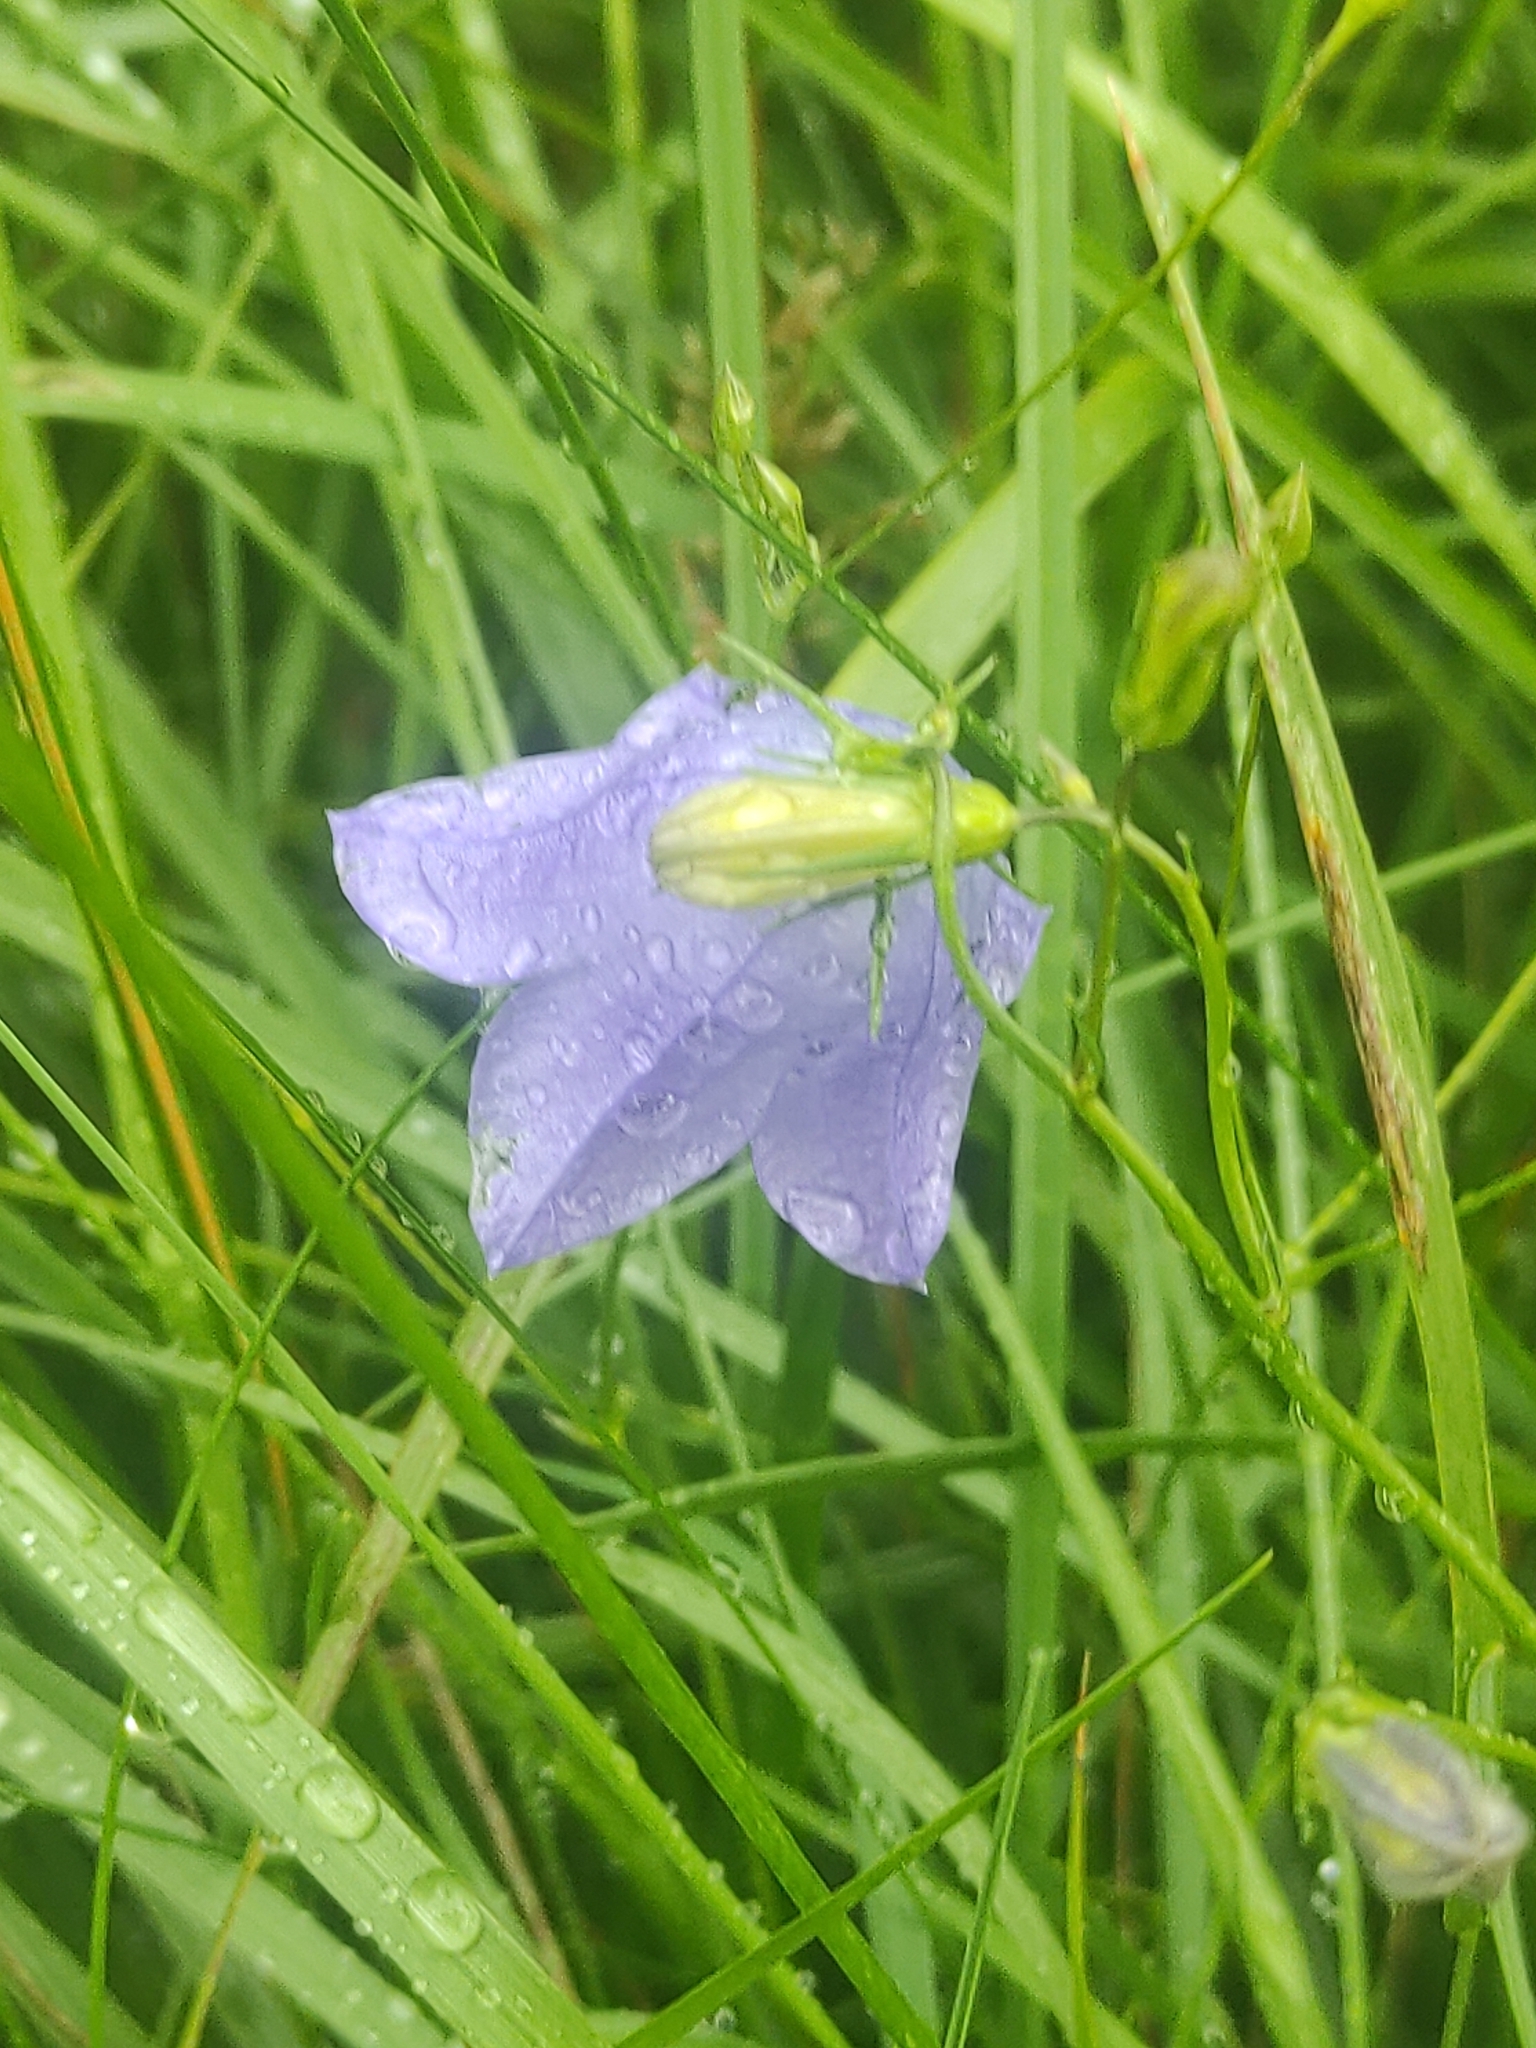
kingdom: Plantae
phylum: Tracheophyta
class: Magnoliopsida
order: Asterales
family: Campanulaceae
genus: Campanula
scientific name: Campanula rotundifolia
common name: Harebell
